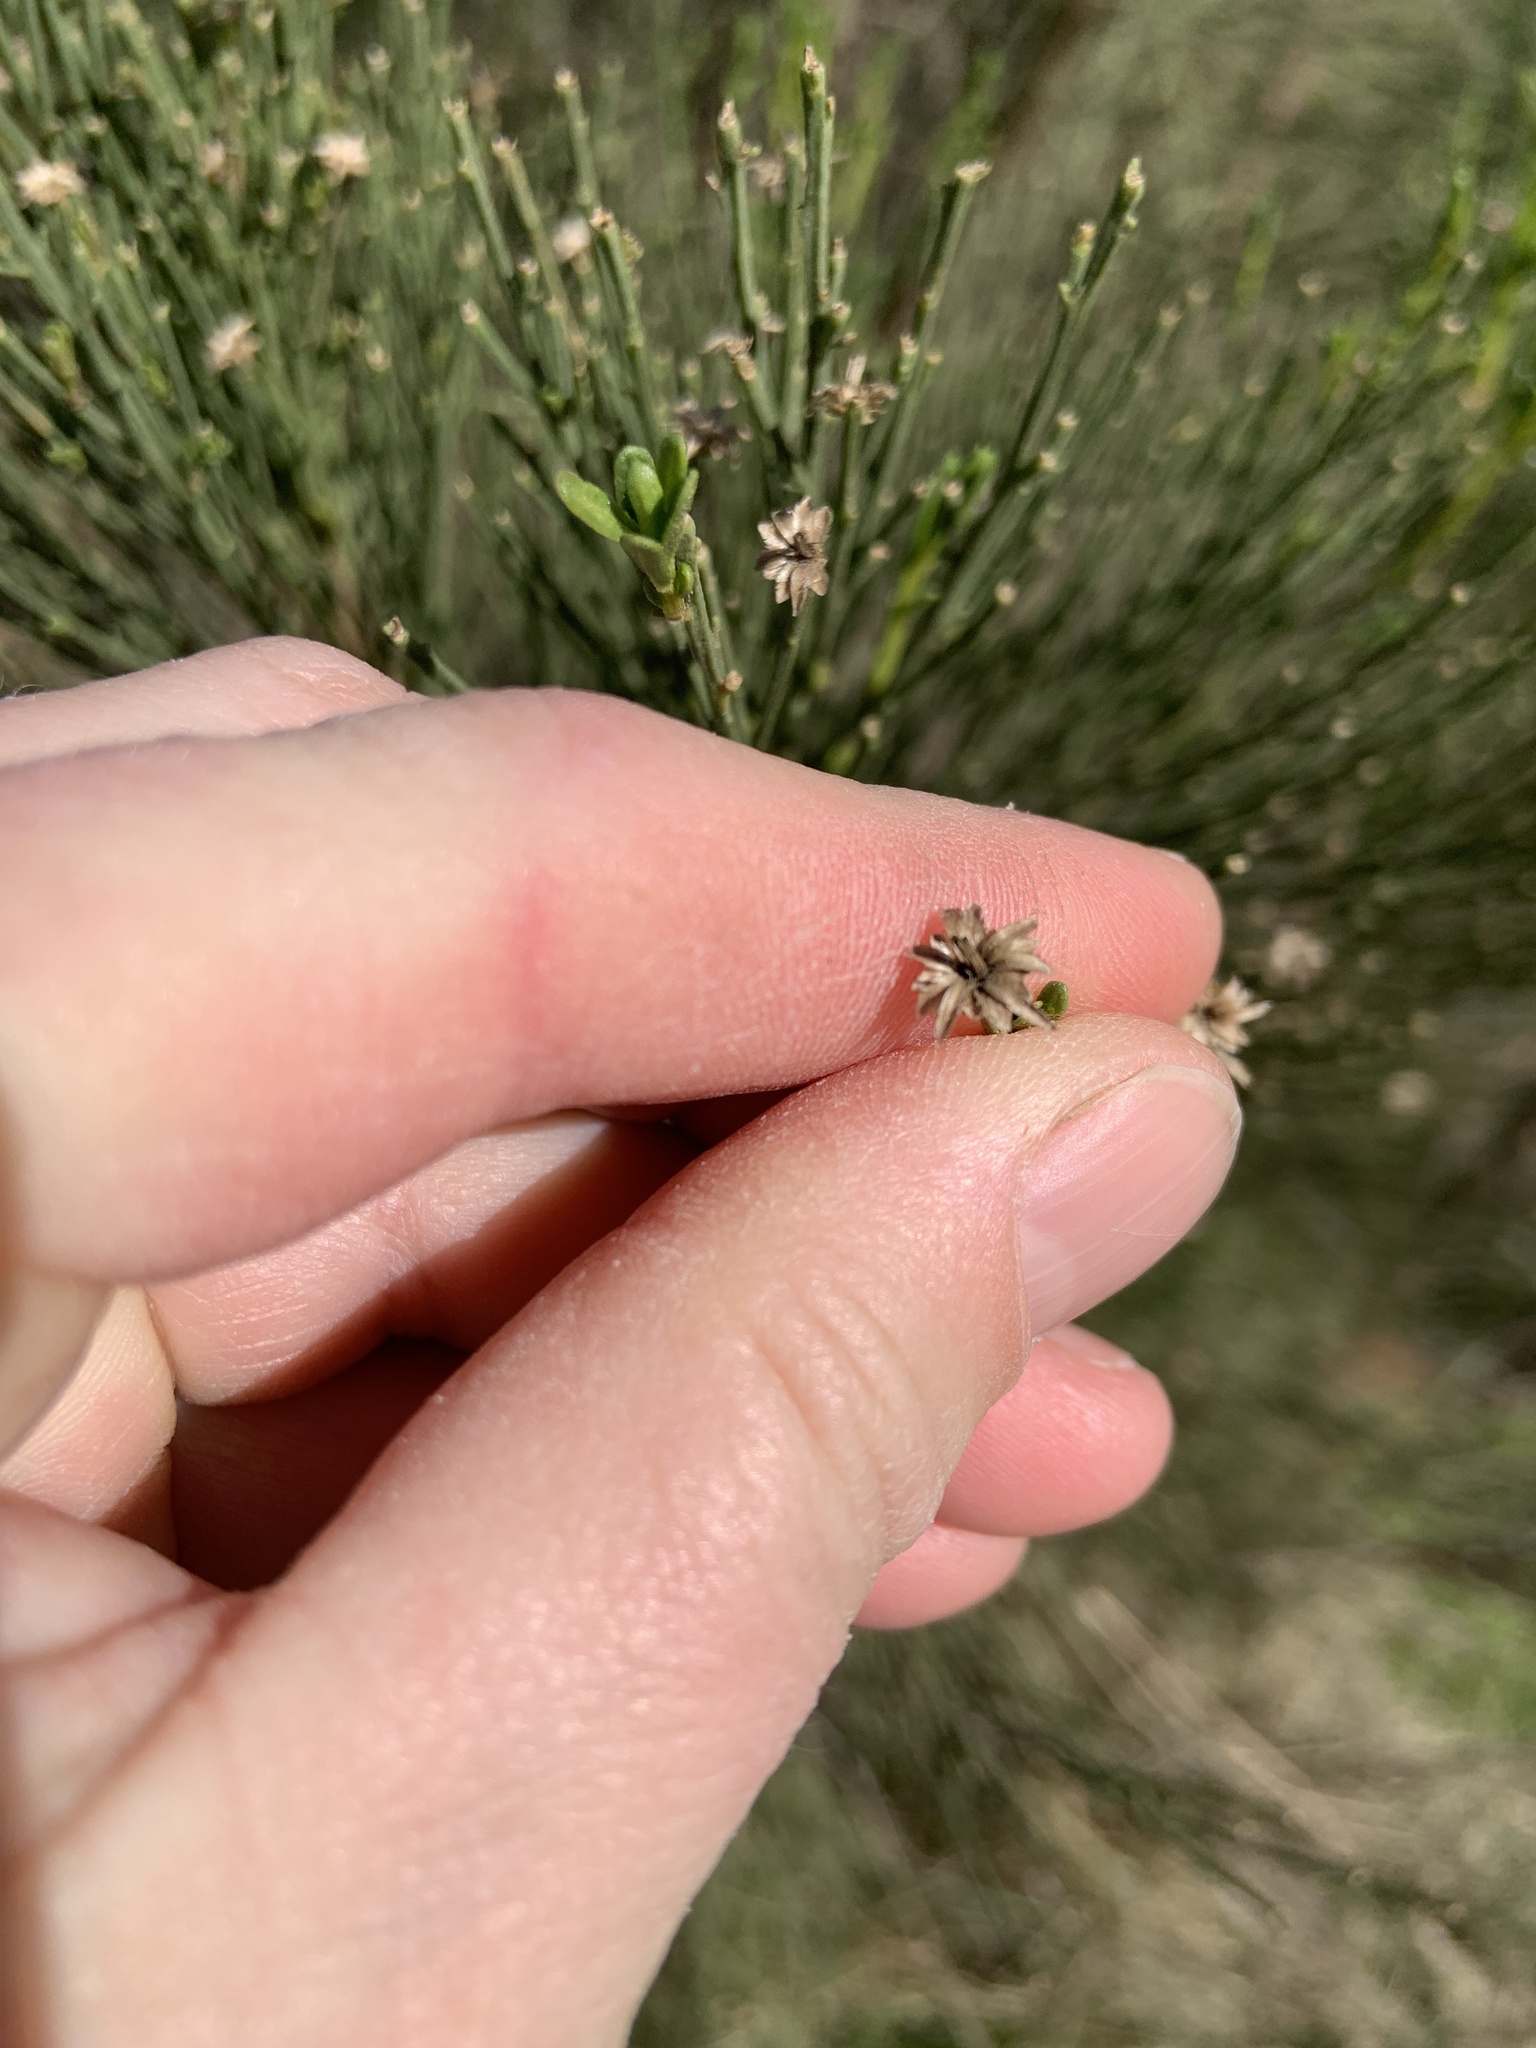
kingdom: Plantae
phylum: Tracheophyta
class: Magnoliopsida
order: Asterales
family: Asteraceae
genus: Baccharis
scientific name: Baccharis sarothroides
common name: Desert-broom
